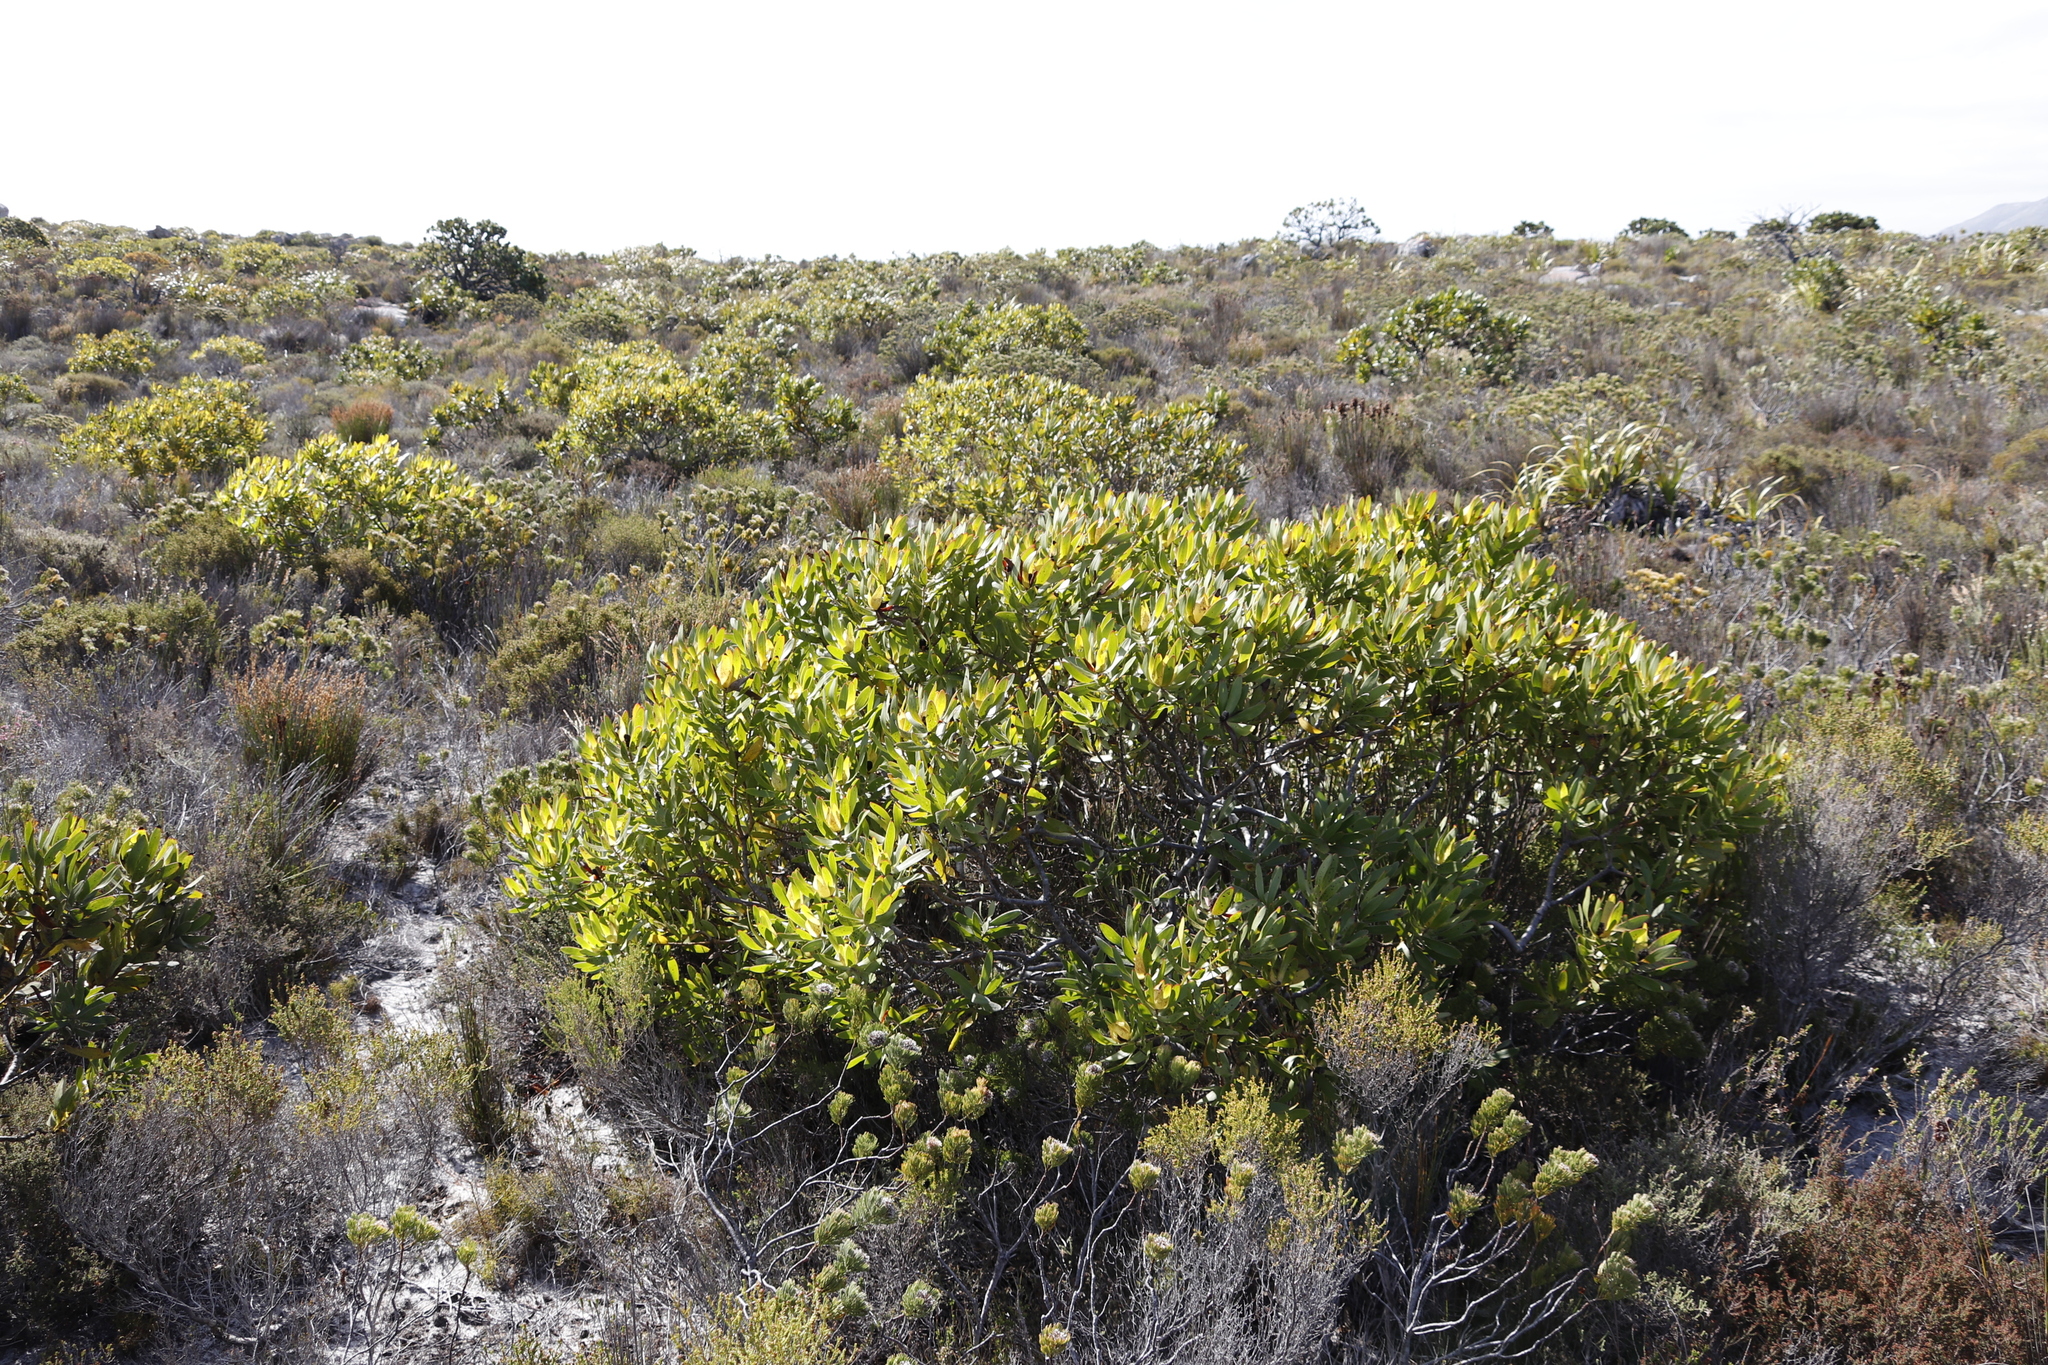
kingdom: Plantae
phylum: Tracheophyta
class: Magnoliopsida
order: Proteales
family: Proteaceae
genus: Leucadendron
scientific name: Leucadendron laureolum
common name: Golden sunshinebush
